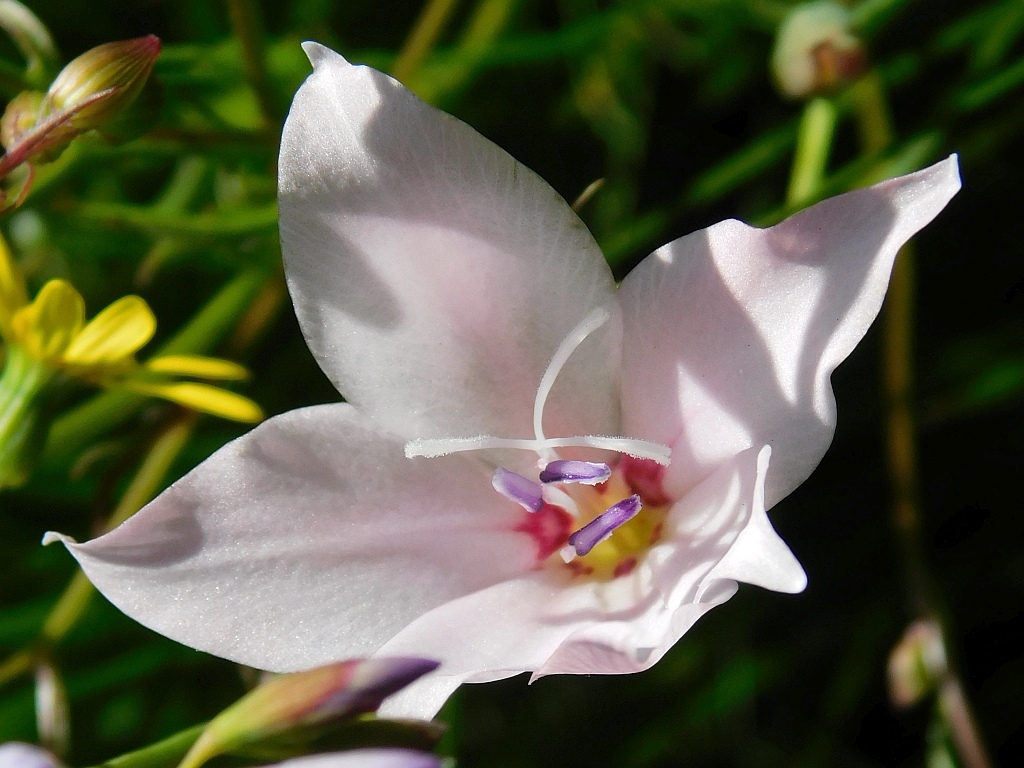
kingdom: Plantae
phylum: Tracheophyta
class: Liliopsida
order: Asparagales
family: Iridaceae
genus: Gladiolus
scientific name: Gladiolus carneus
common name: Painted-lady
